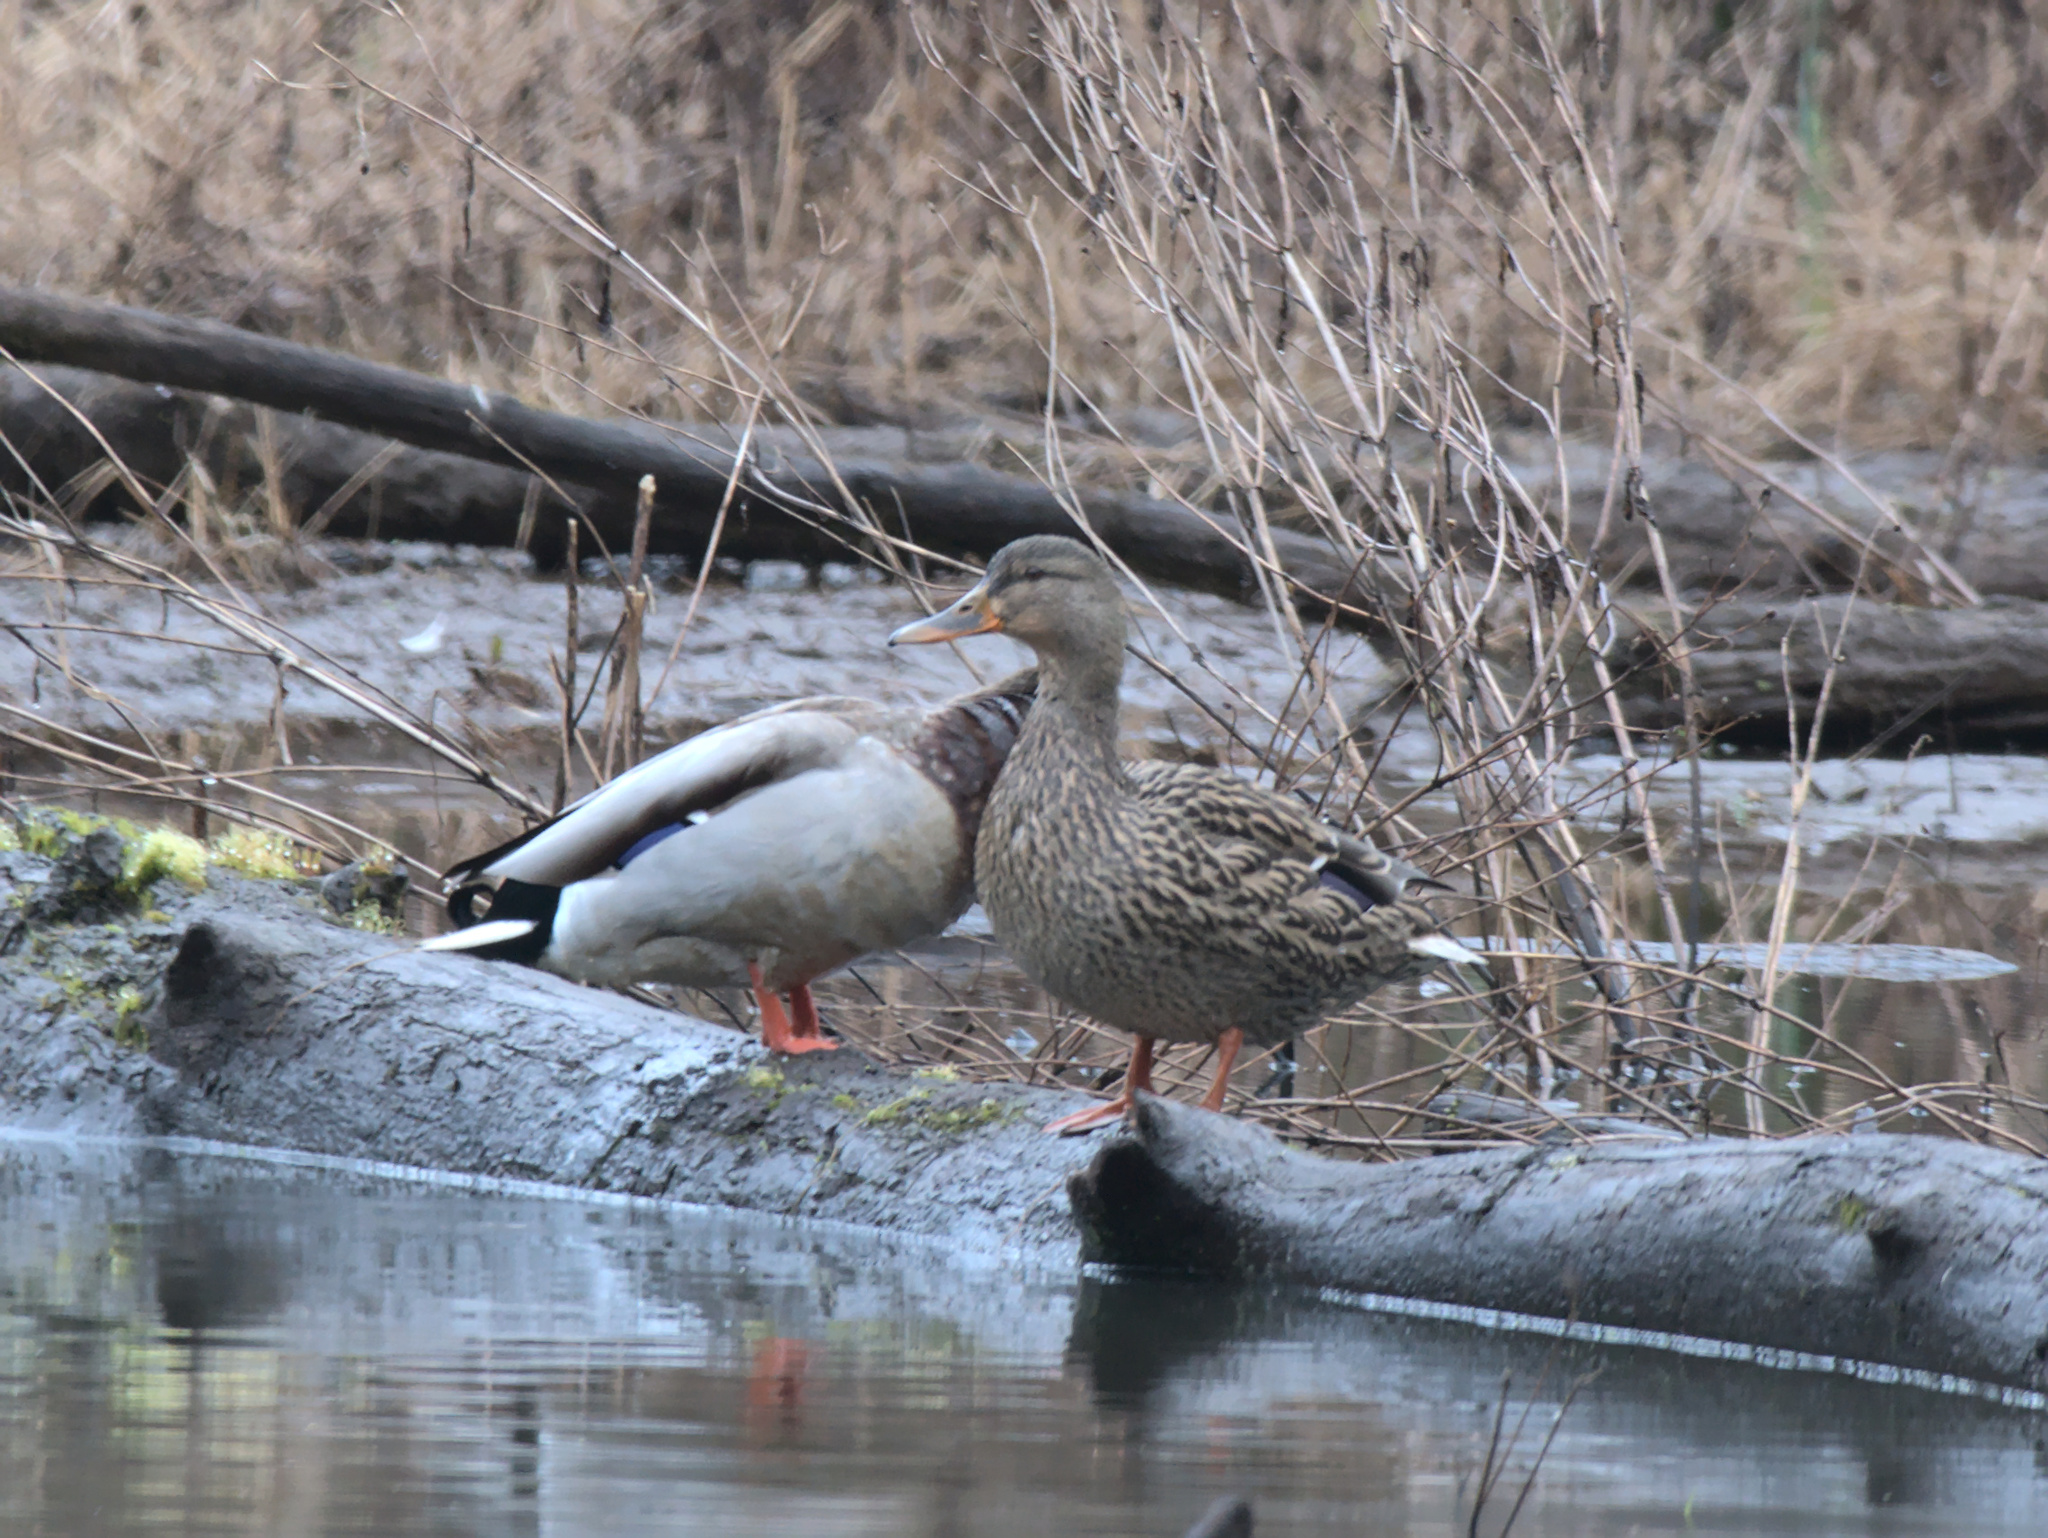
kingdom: Animalia
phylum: Chordata
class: Aves
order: Anseriformes
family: Anatidae
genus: Anas
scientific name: Anas platyrhynchos
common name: Mallard
